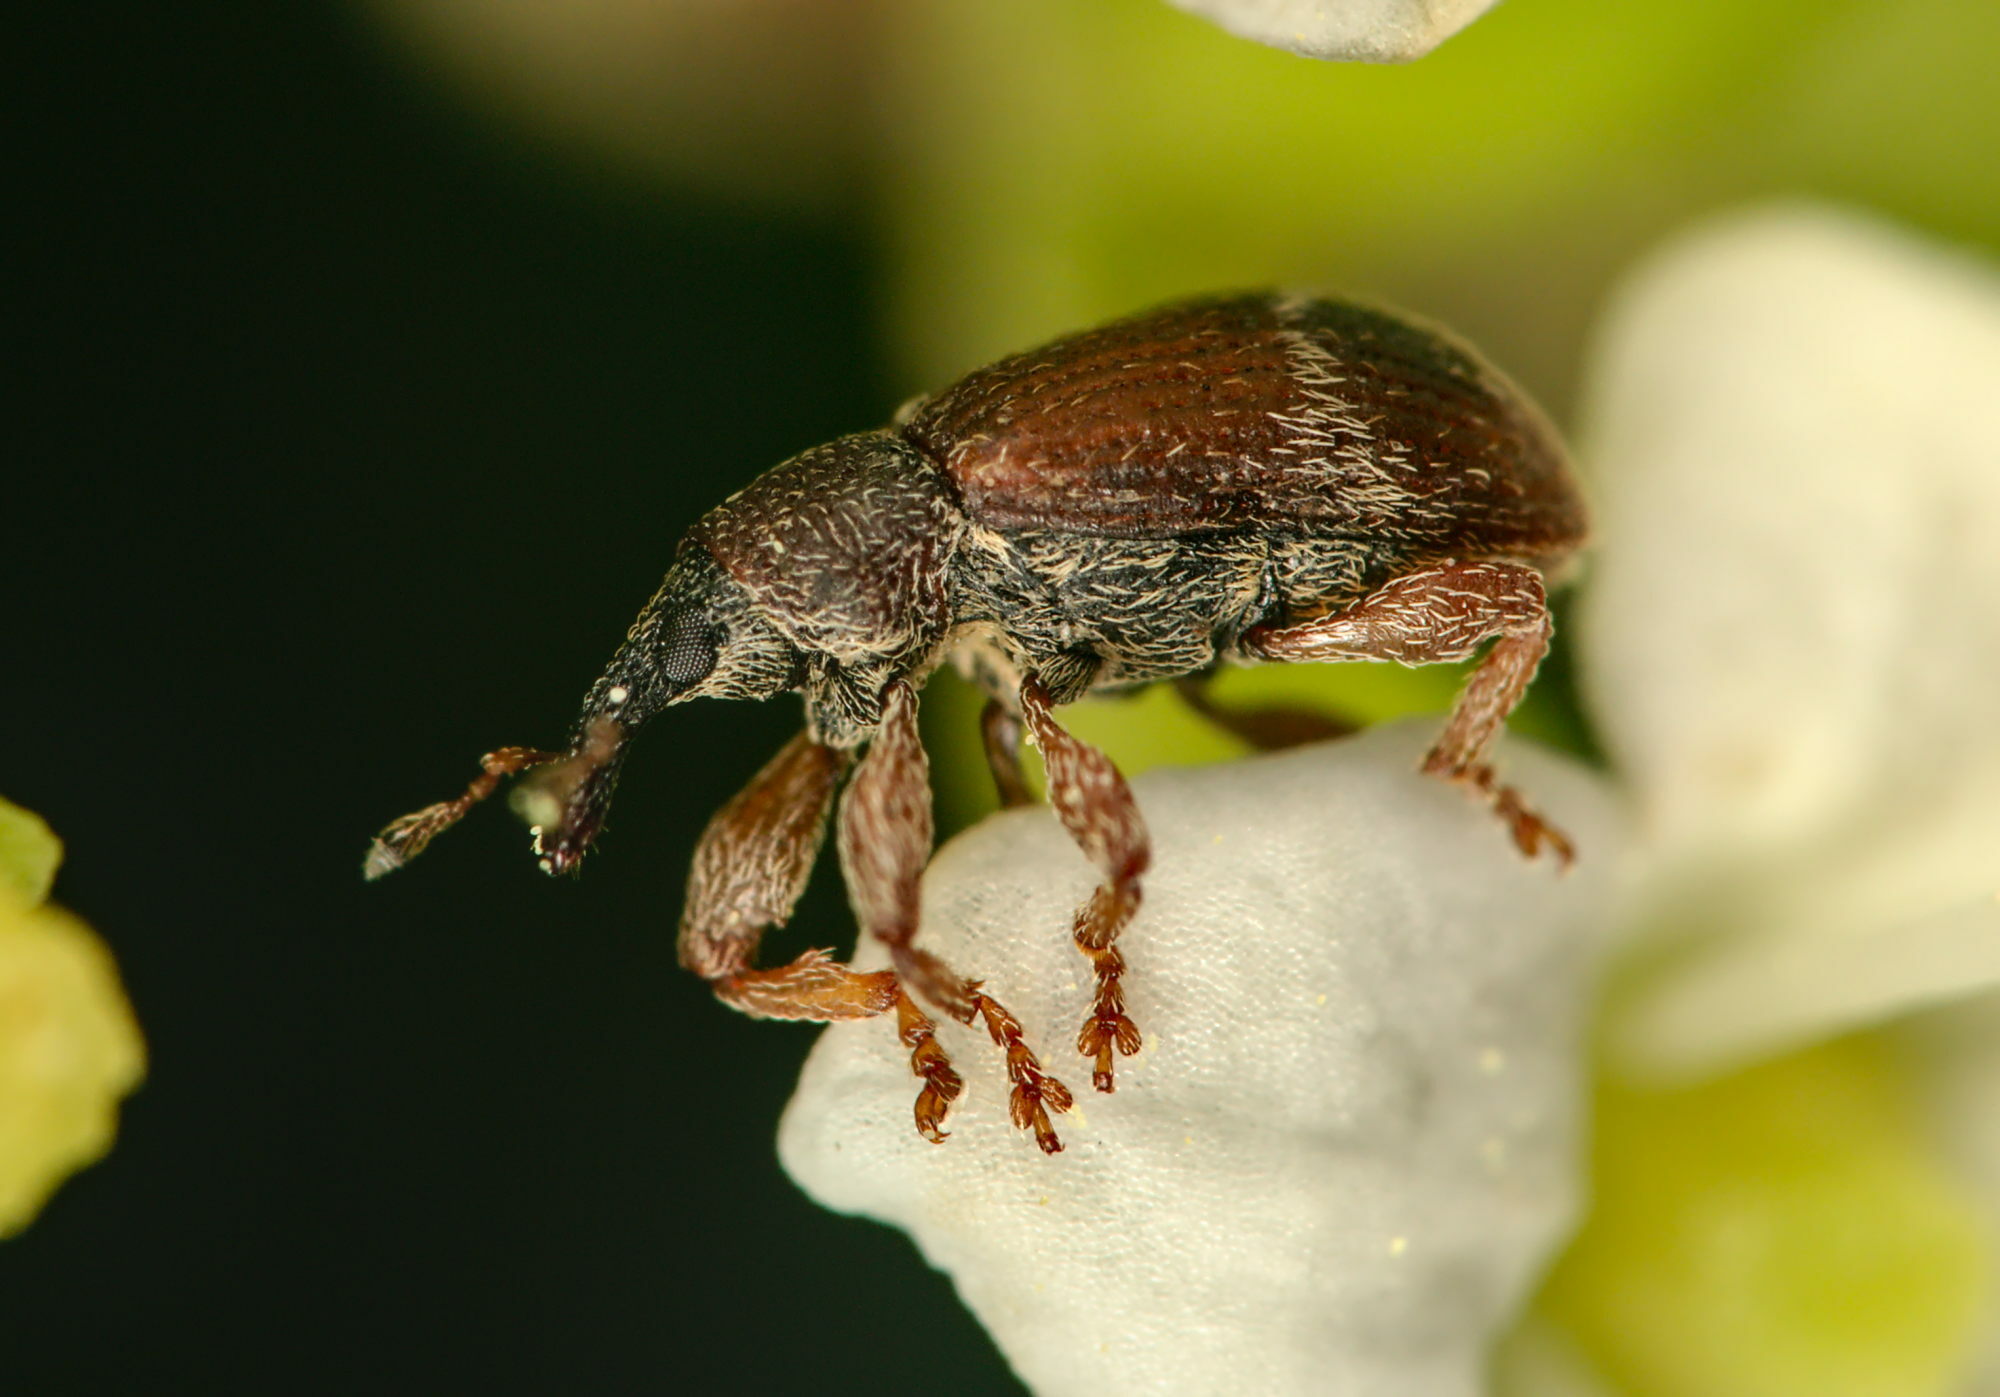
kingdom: Animalia
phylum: Arthropoda
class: Insecta
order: Coleoptera
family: Curculionidae
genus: Bradybatus
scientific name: Bradybatus fallax
